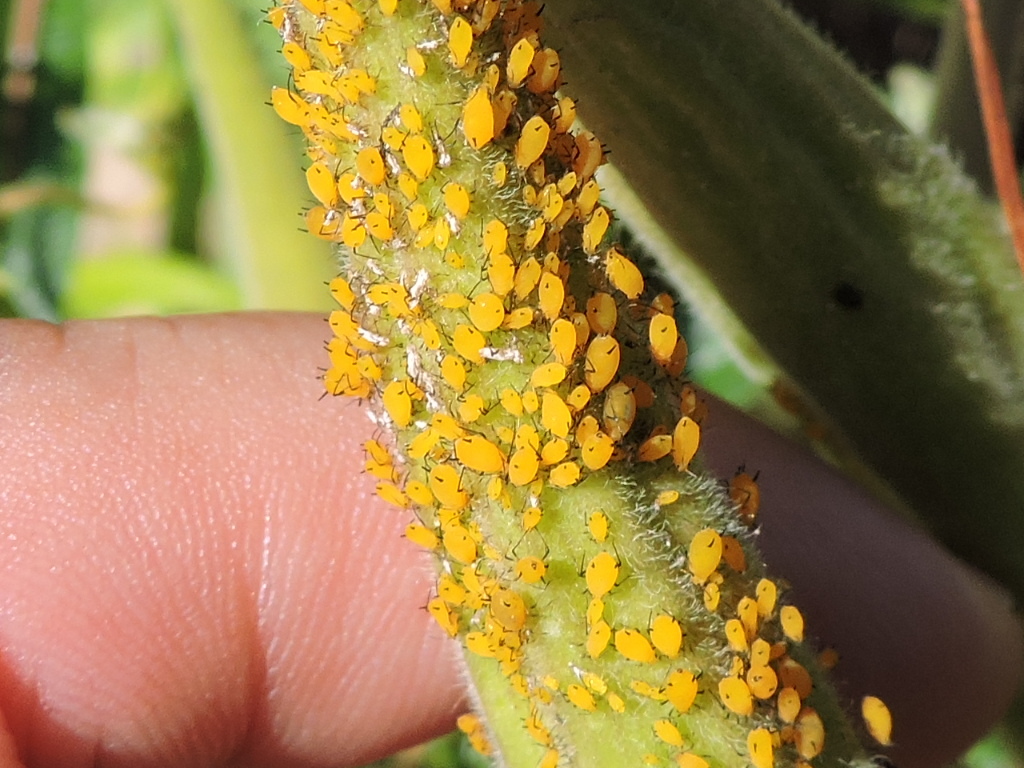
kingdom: Animalia
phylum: Arthropoda
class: Insecta
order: Hemiptera
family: Aphididae
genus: Aphis
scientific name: Aphis nerii
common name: Oleander aphid
